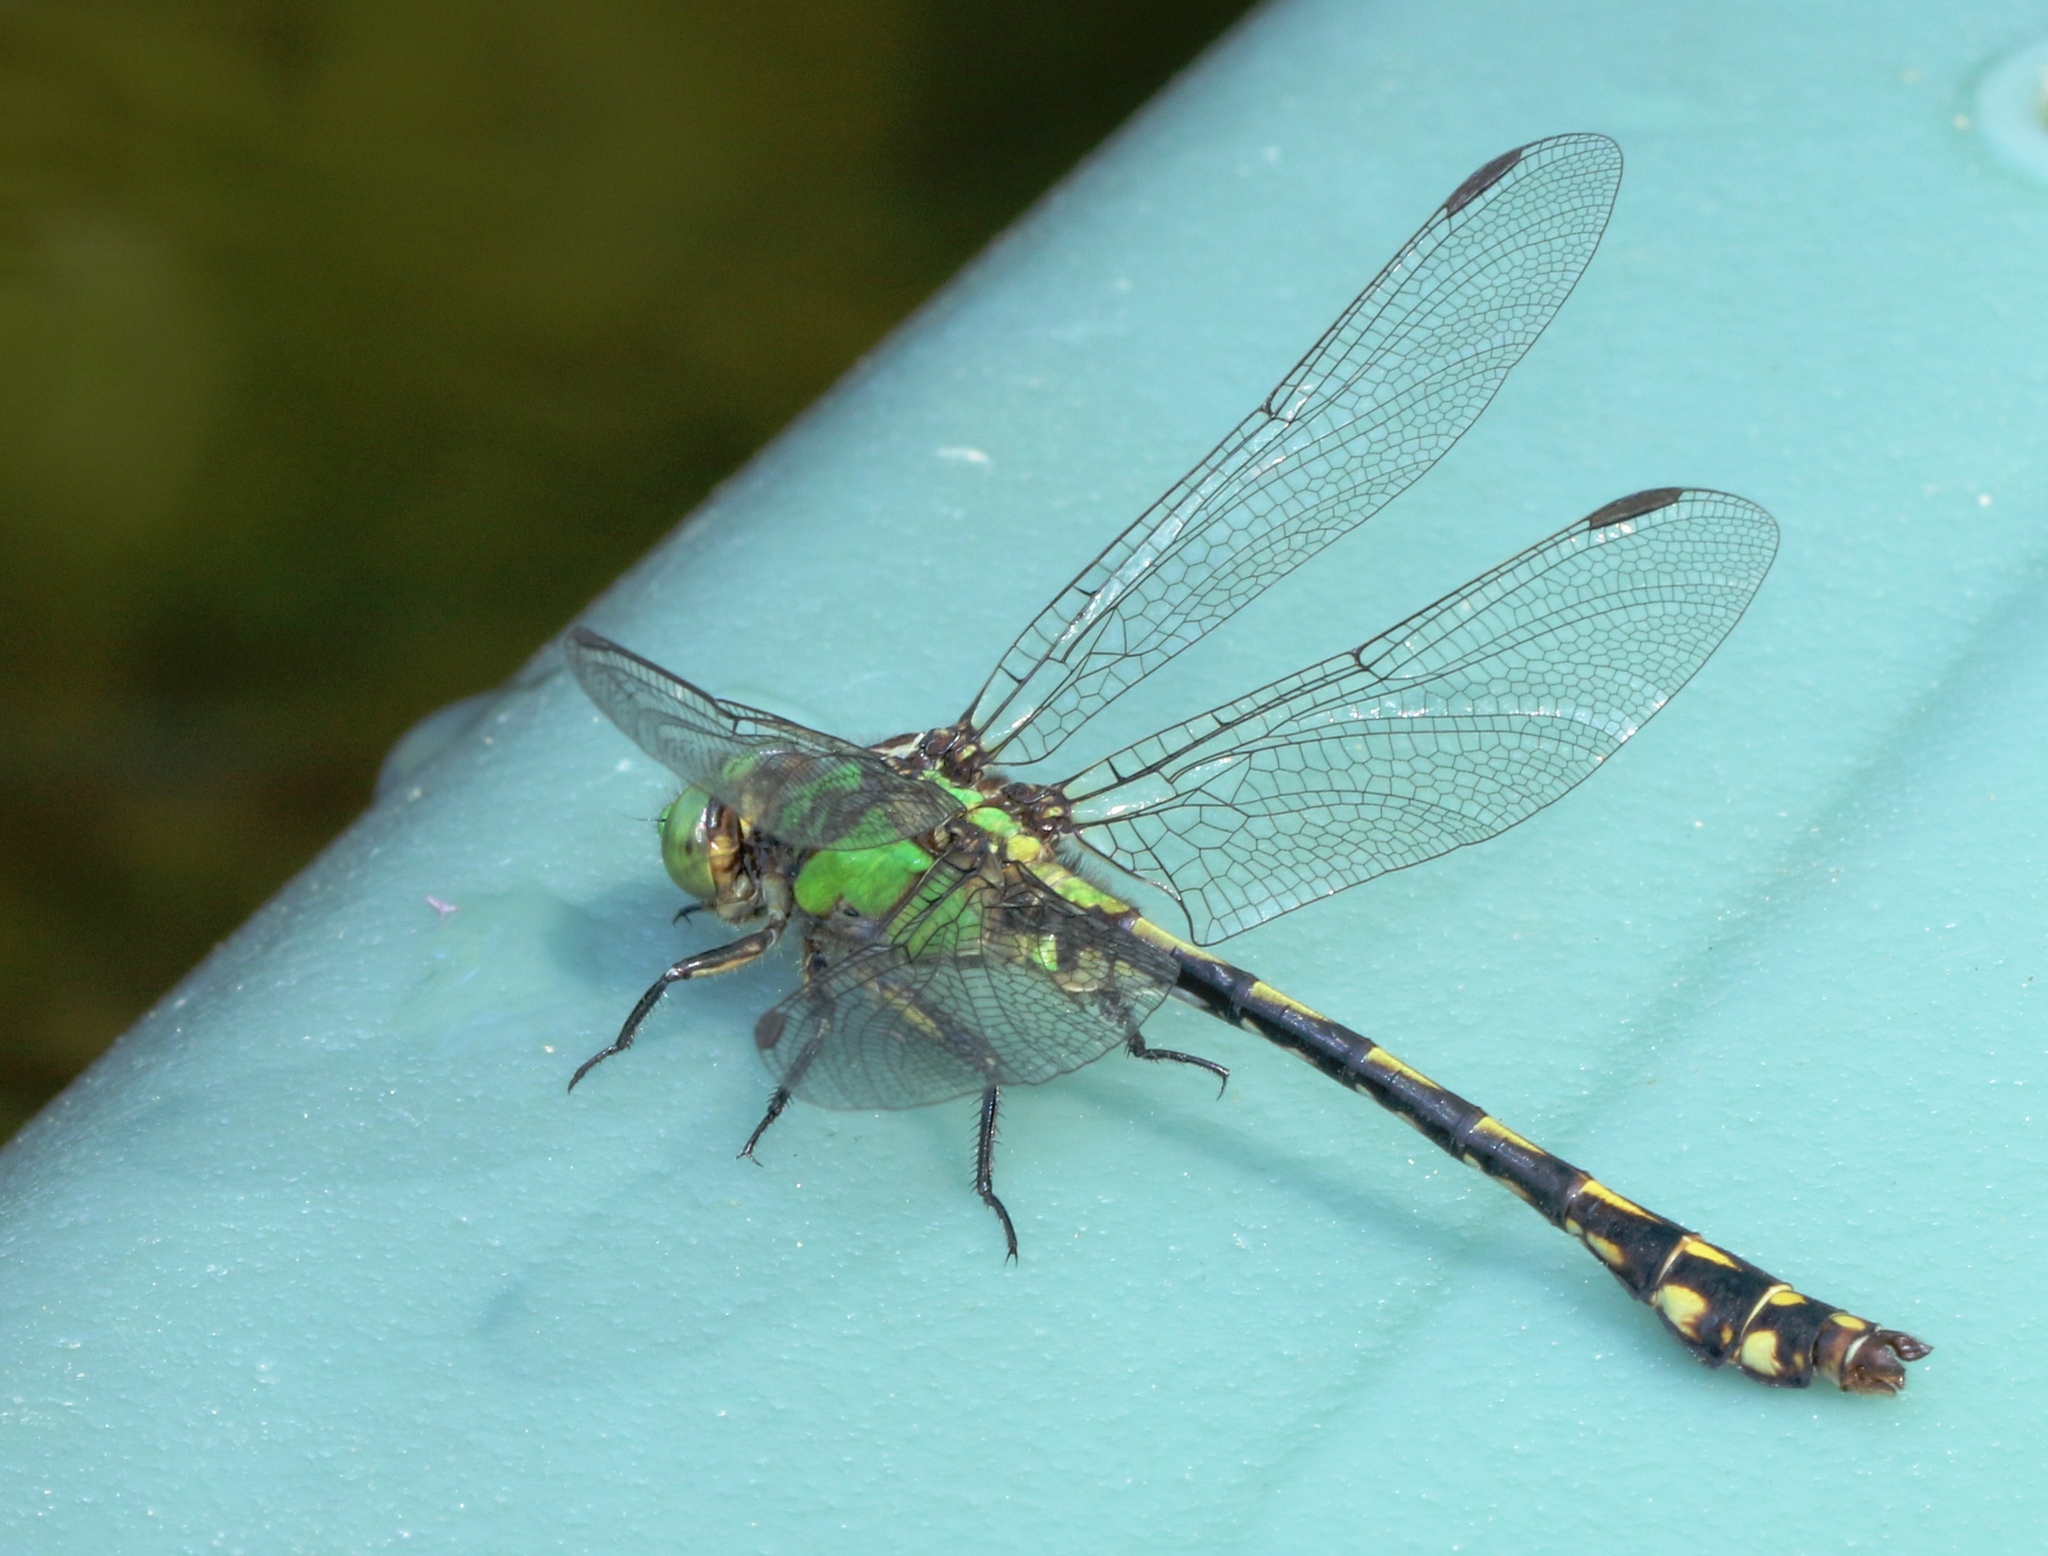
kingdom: Animalia
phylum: Arthropoda
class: Insecta
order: Odonata
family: Gomphidae
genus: Ophiogomphus
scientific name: Ophiogomphus aspersus
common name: Brook snaketail
